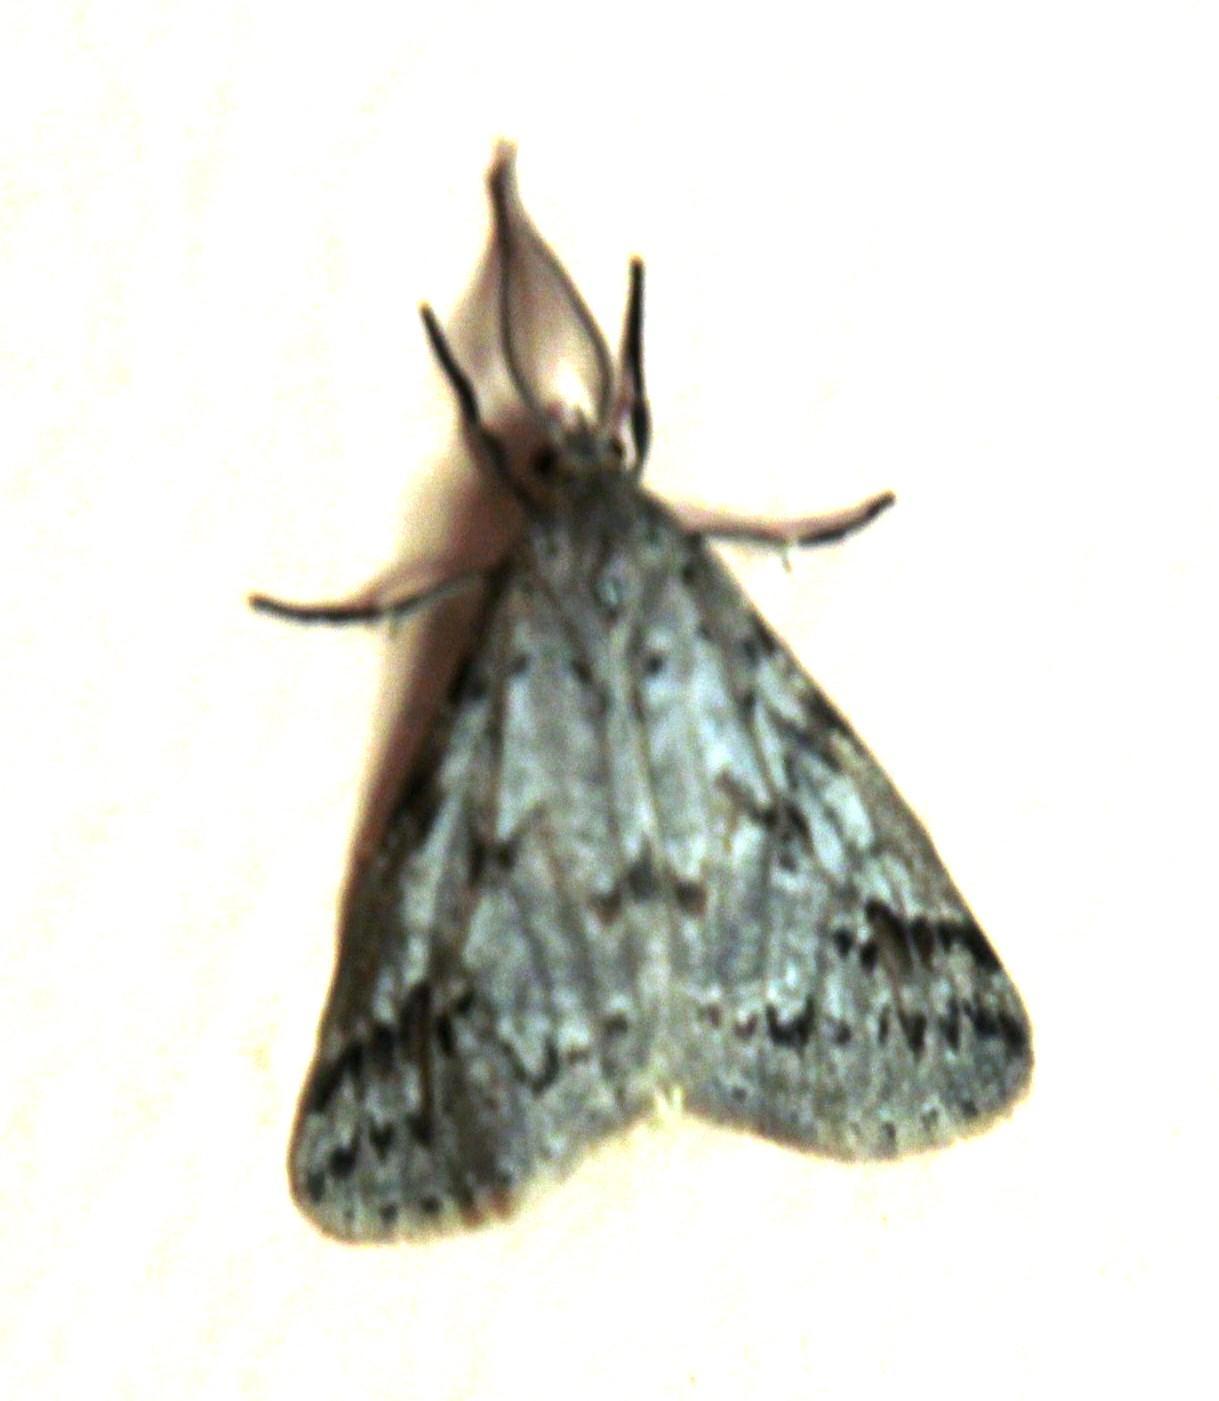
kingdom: Animalia
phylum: Arthropoda
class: Insecta
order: Lepidoptera
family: Erebidae
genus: Galtara
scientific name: Galtara rostrata
